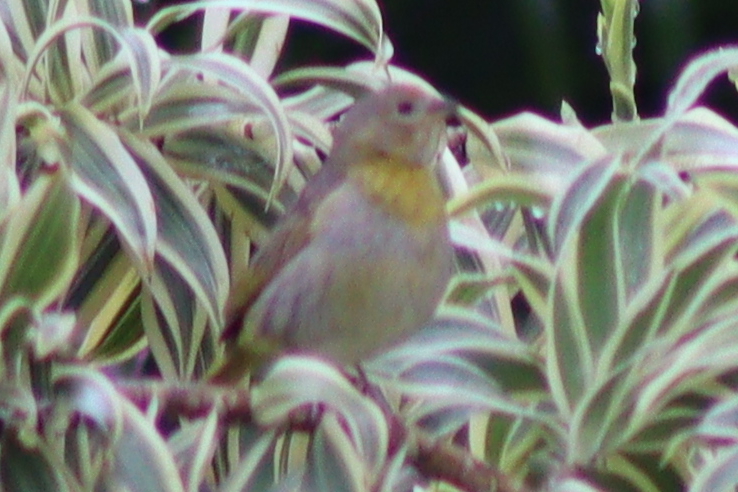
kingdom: Animalia
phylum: Chordata
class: Aves
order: Passeriformes
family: Thraupidae
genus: Sicalis
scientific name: Sicalis flaveola
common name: Saffron finch
